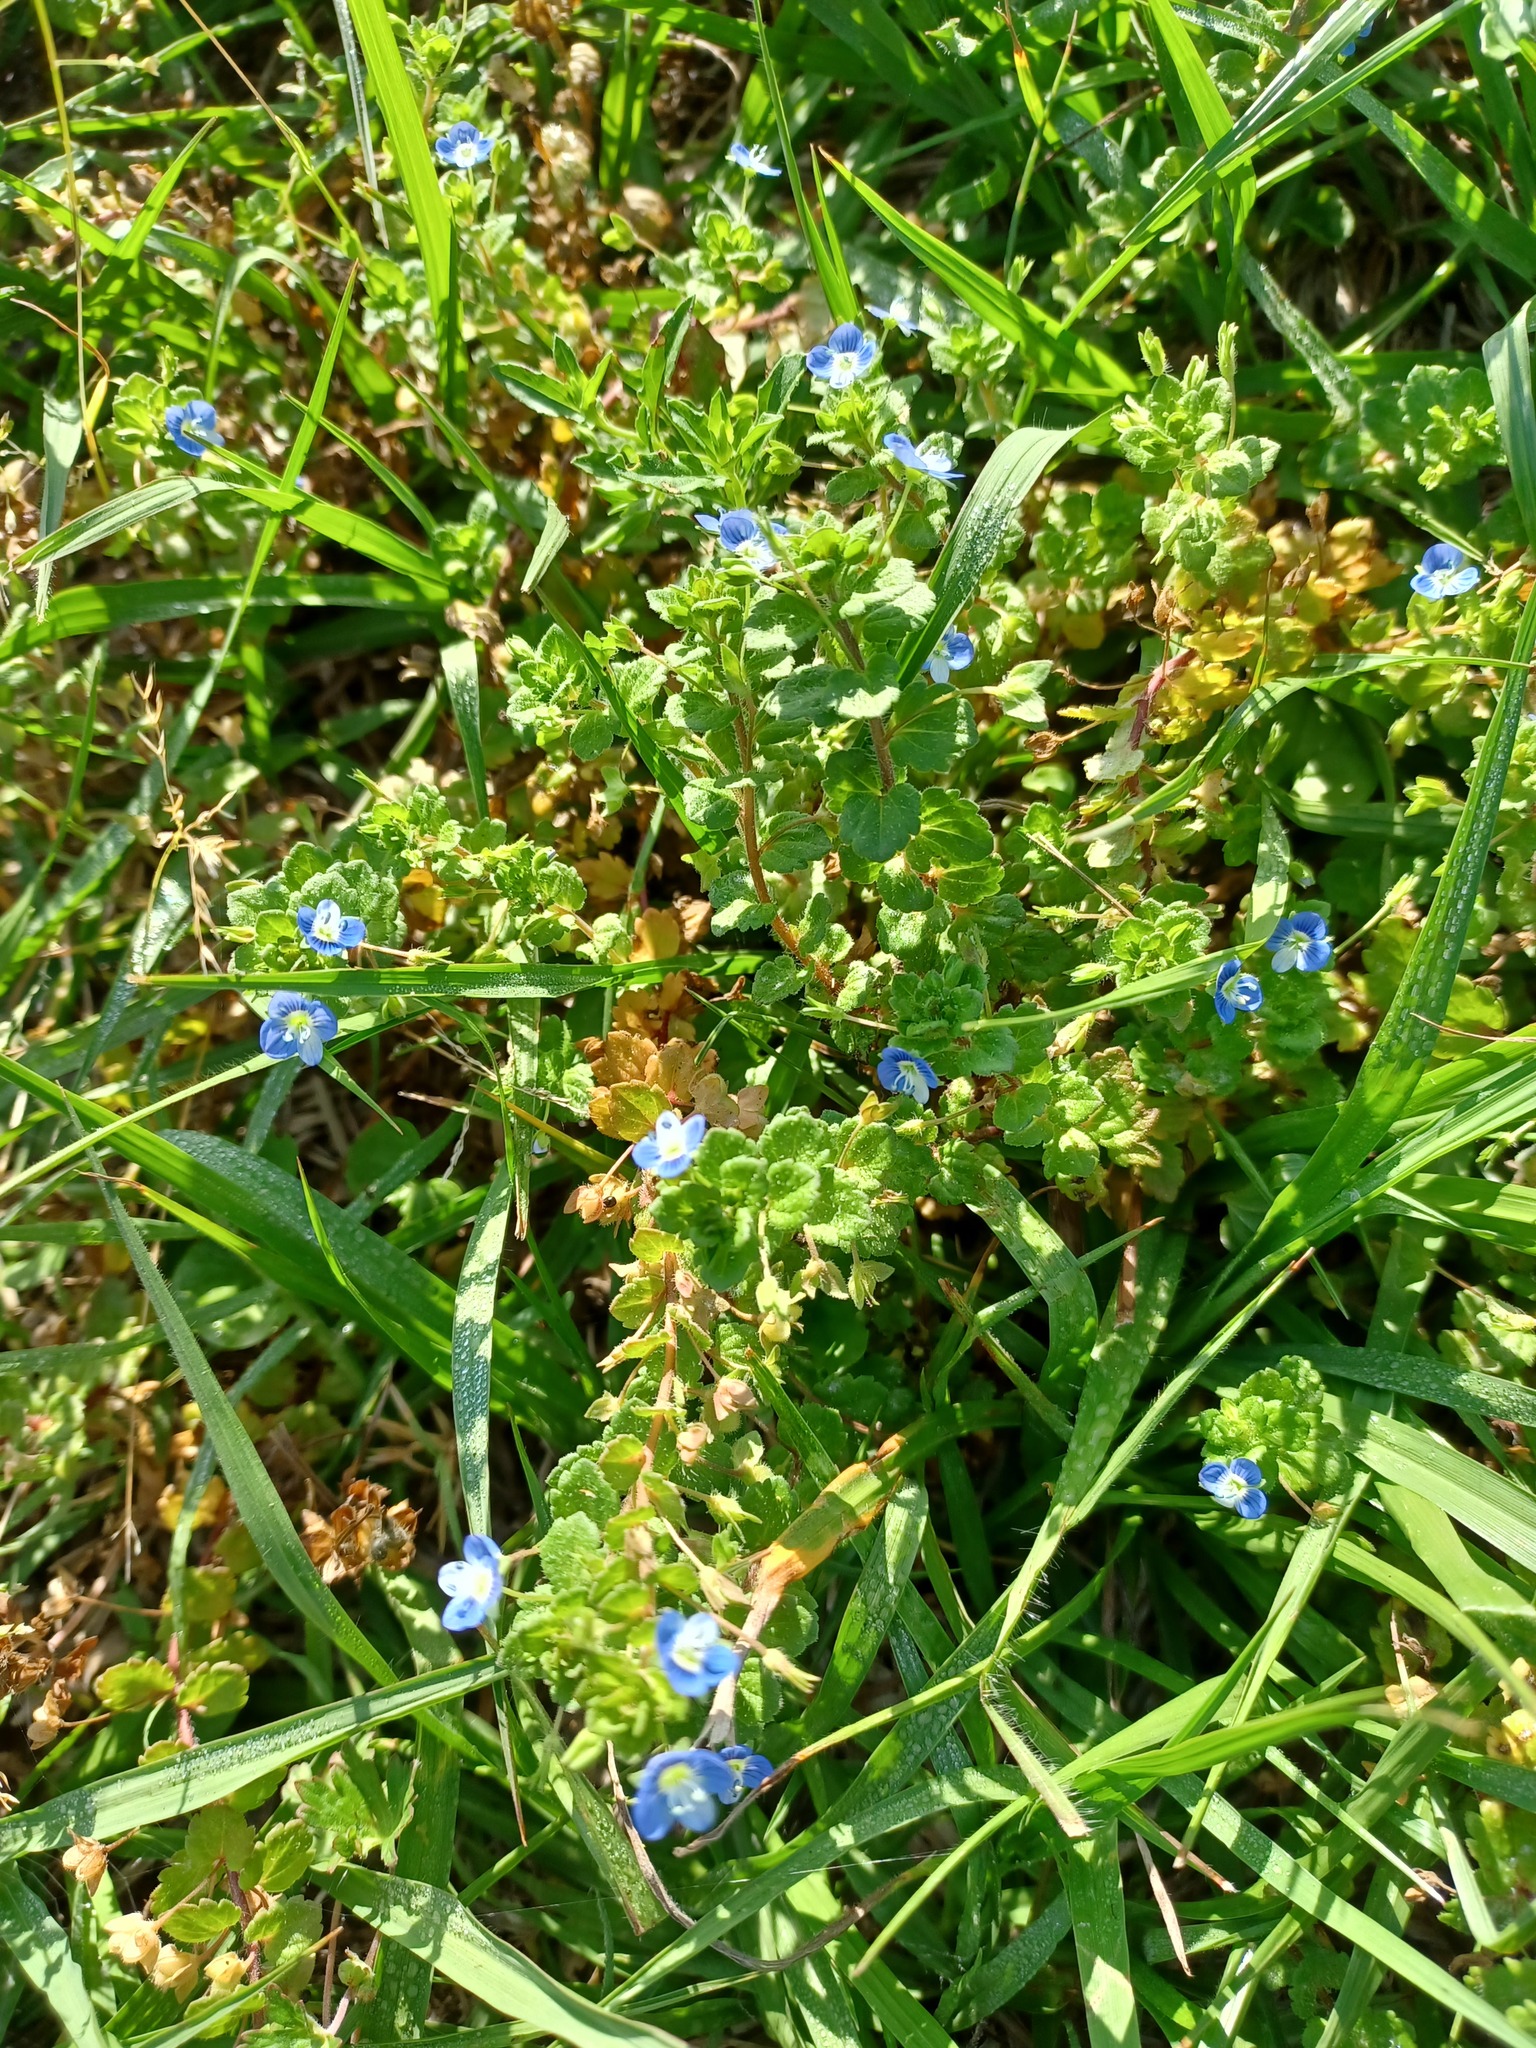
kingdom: Plantae
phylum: Tracheophyta
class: Magnoliopsida
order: Lamiales
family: Plantaginaceae
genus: Veronica
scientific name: Veronica persica
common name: Common field-speedwell
